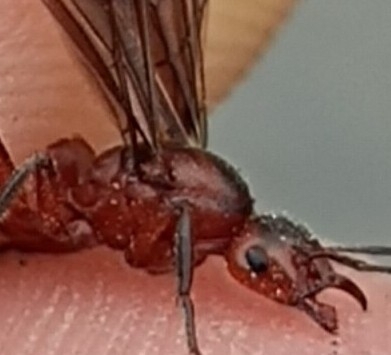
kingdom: Animalia
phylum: Arthropoda
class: Insecta
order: Hymenoptera
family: Formicidae
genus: Formica
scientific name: Formica truncorum
